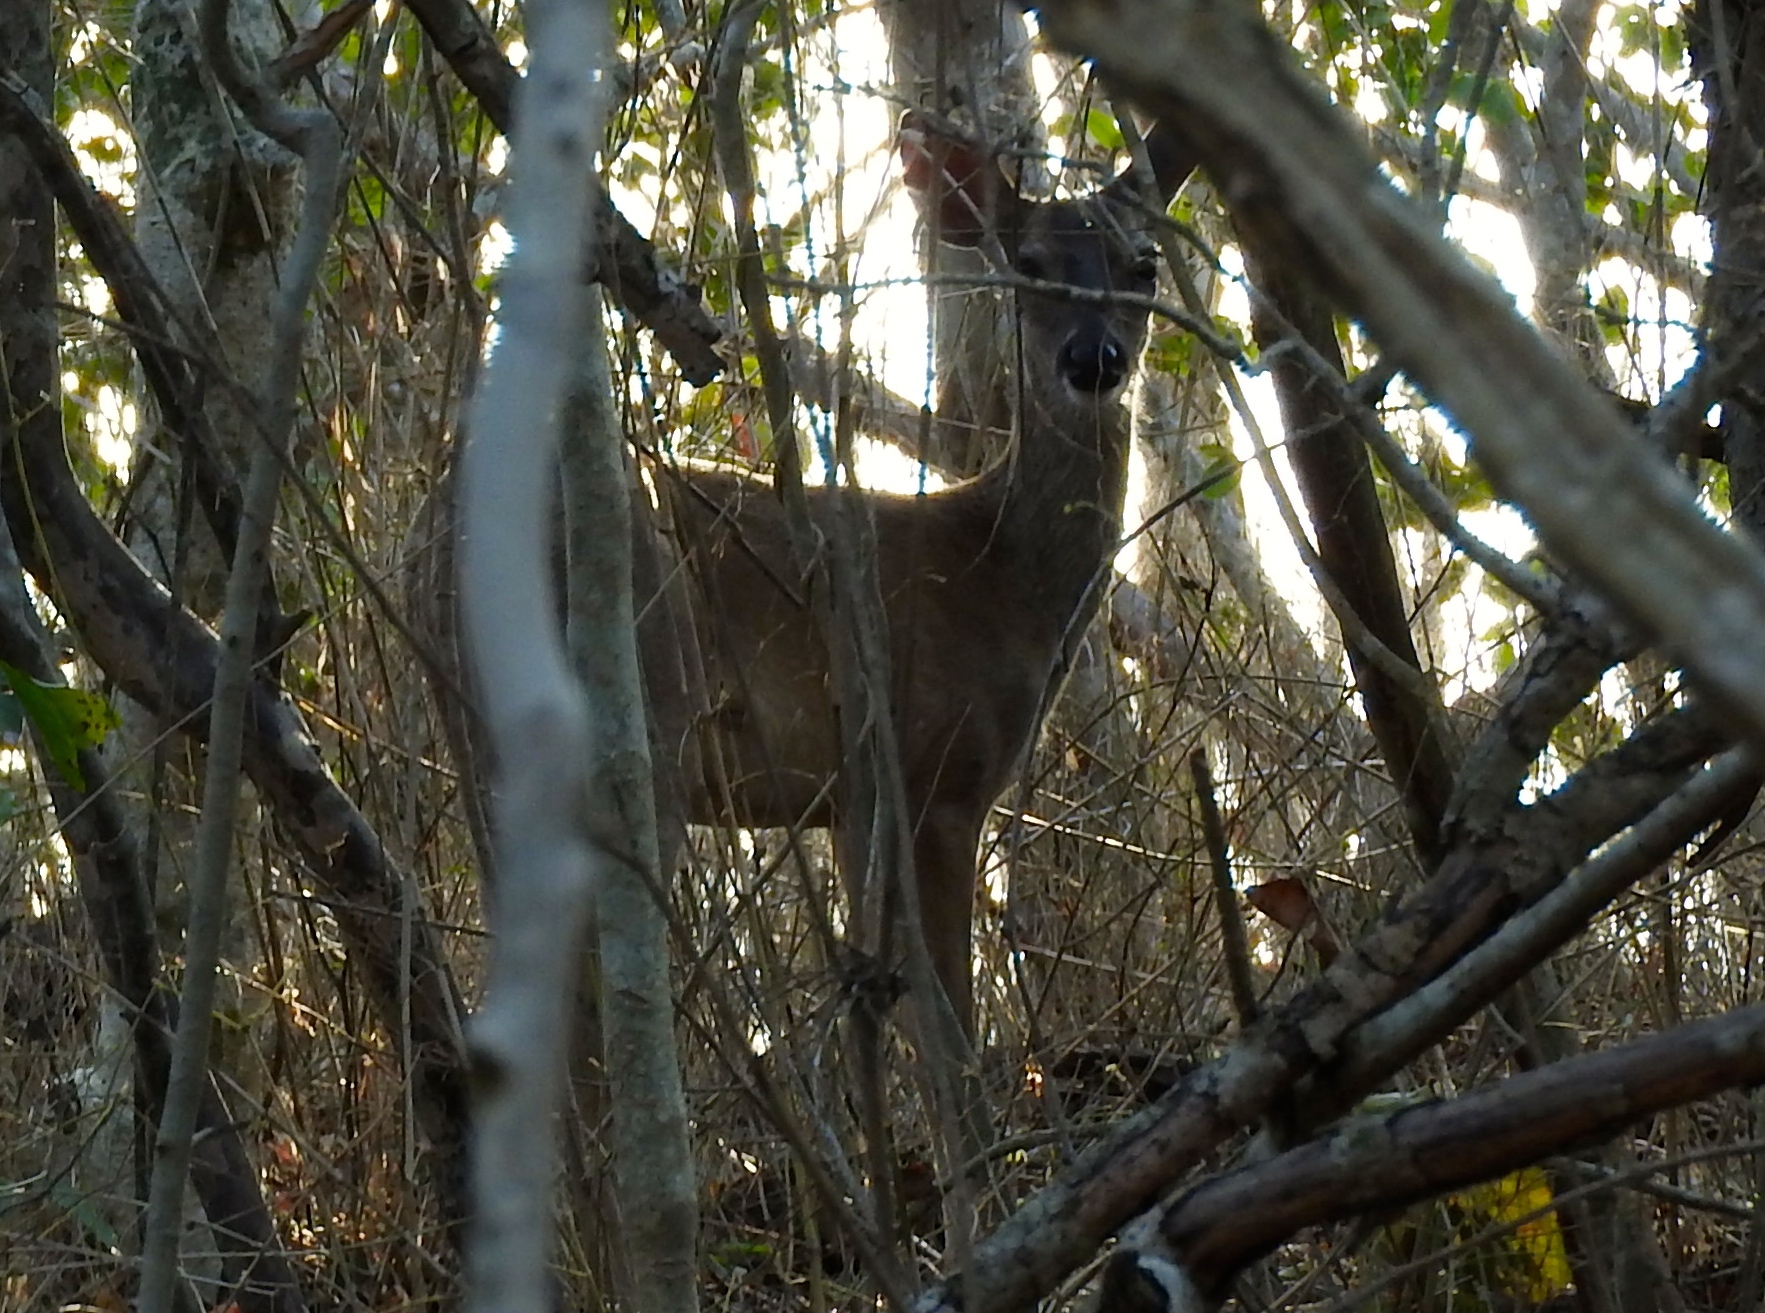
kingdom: Animalia
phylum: Chordata
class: Mammalia
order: Artiodactyla
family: Cervidae
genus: Odocoileus
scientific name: Odocoileus virginianus
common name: White-tailed deer
